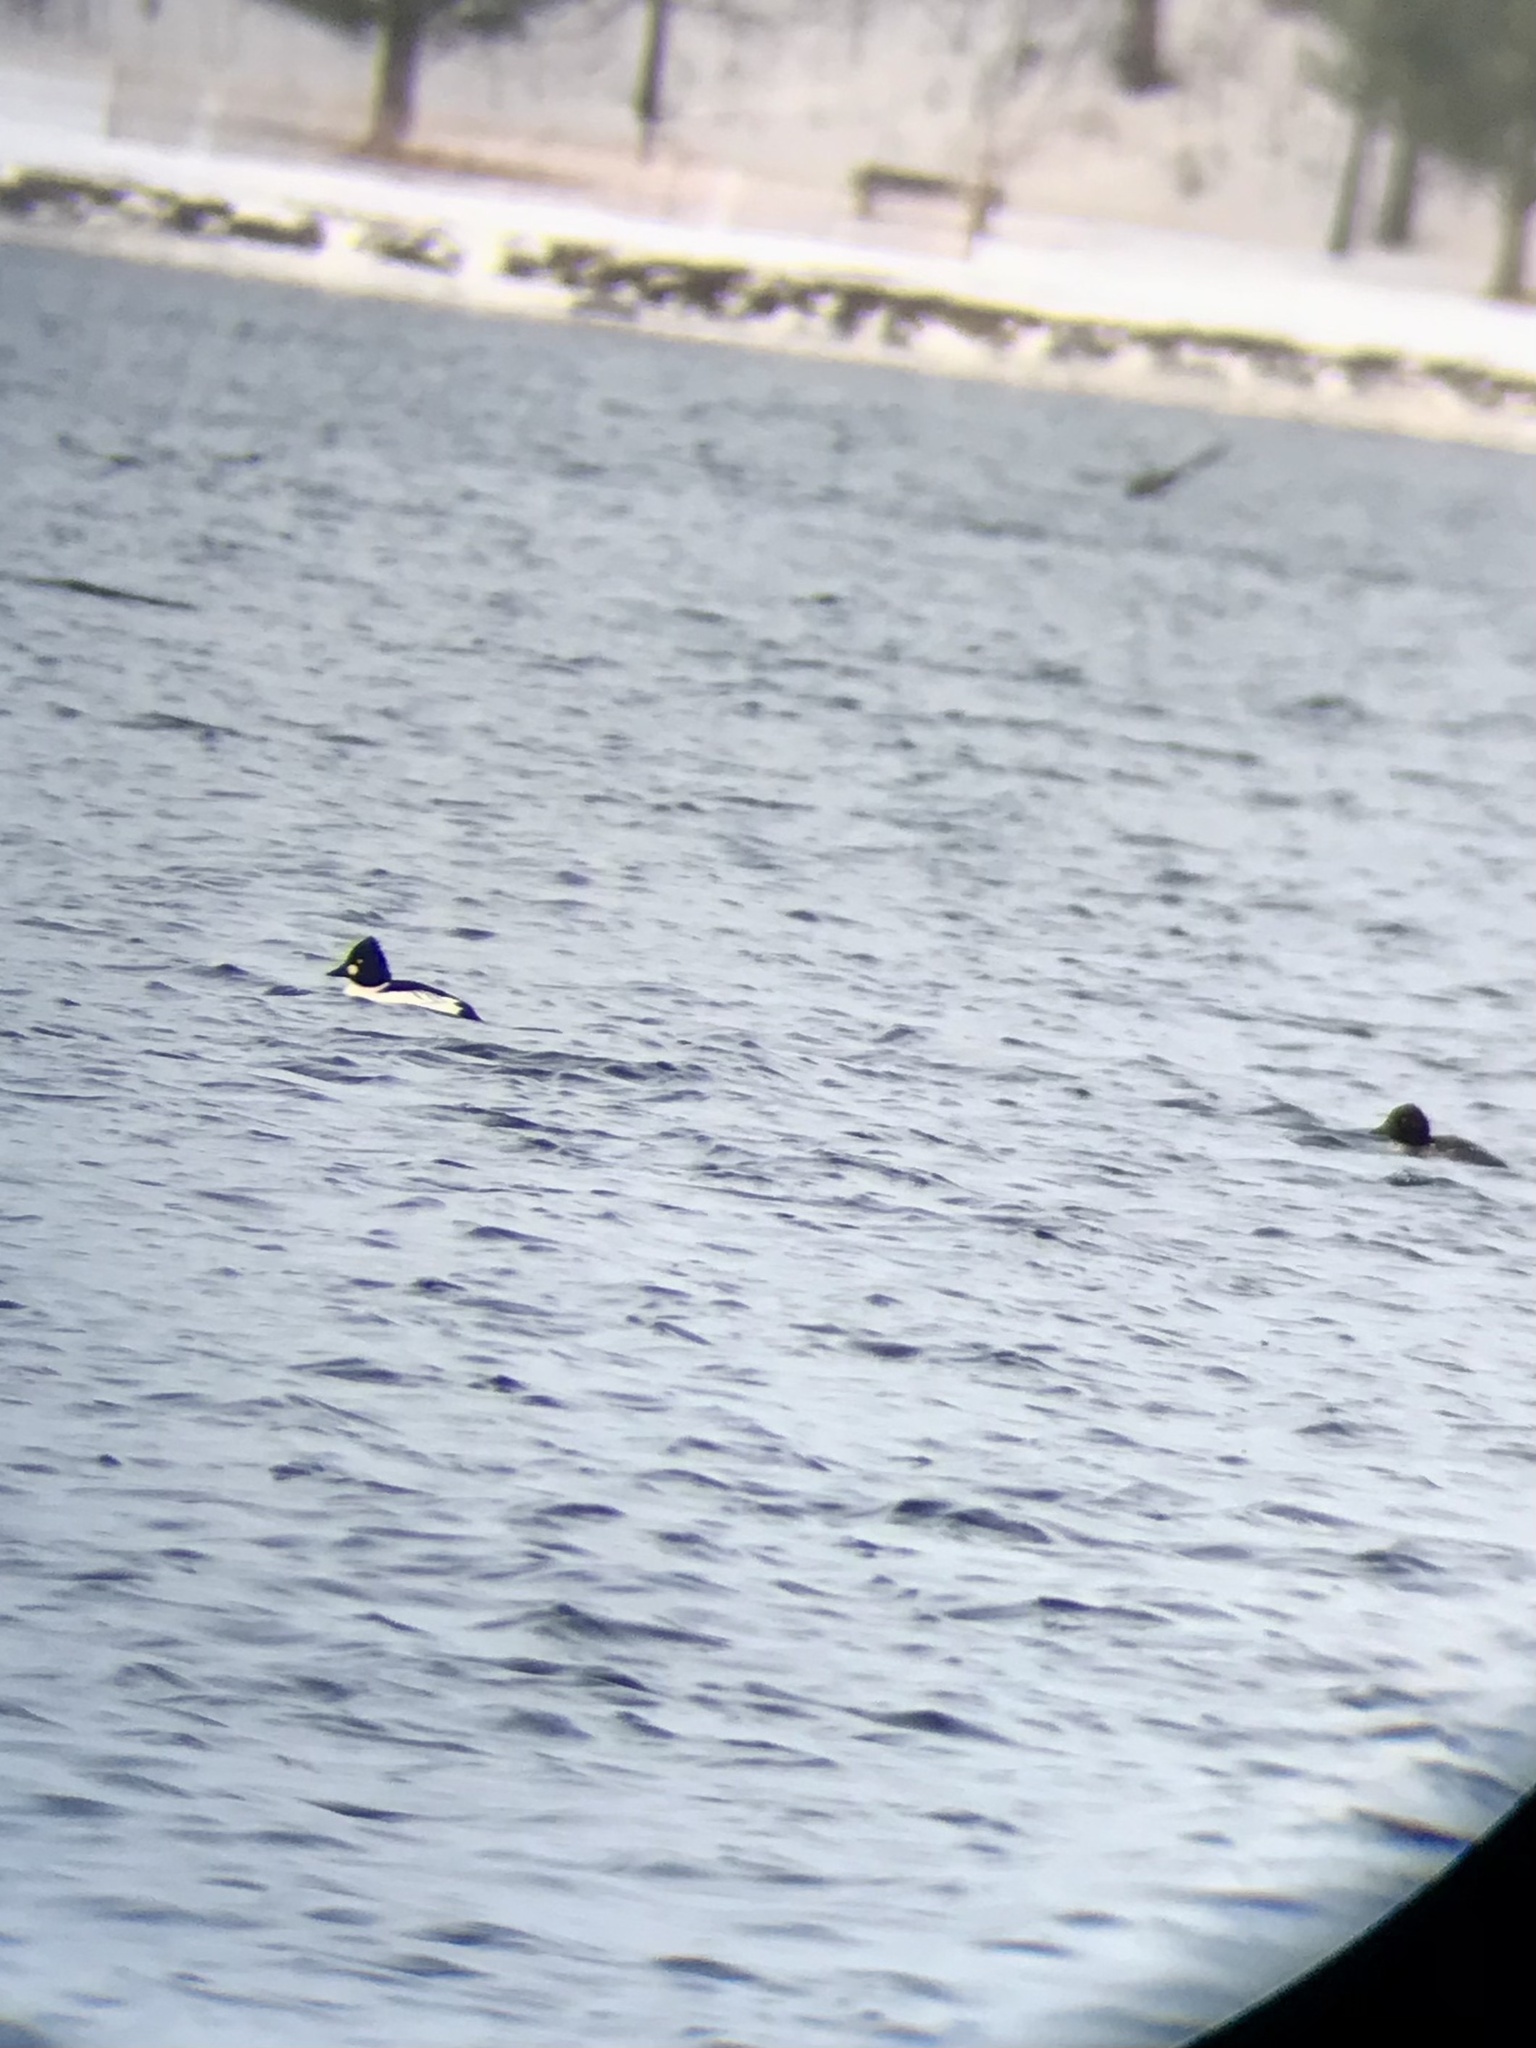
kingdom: Animalia
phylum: Chordata
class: Aves
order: Anseriformes
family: Anatidae
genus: Bucephala
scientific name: Bucephala clangula
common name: Common goldeneye
